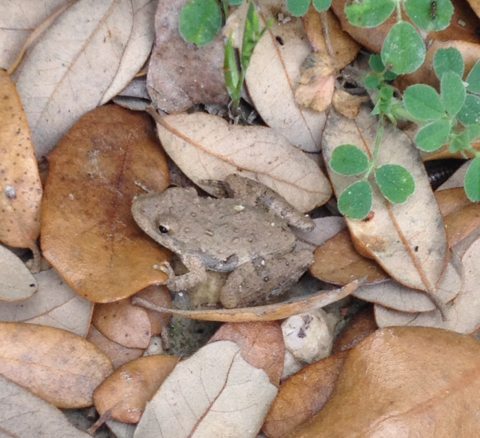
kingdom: Animalia
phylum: Chordata
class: Amphibia
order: Anura
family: Hylidae
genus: Acris
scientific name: Acris blanchardi
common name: Blanchard's cricket frog
